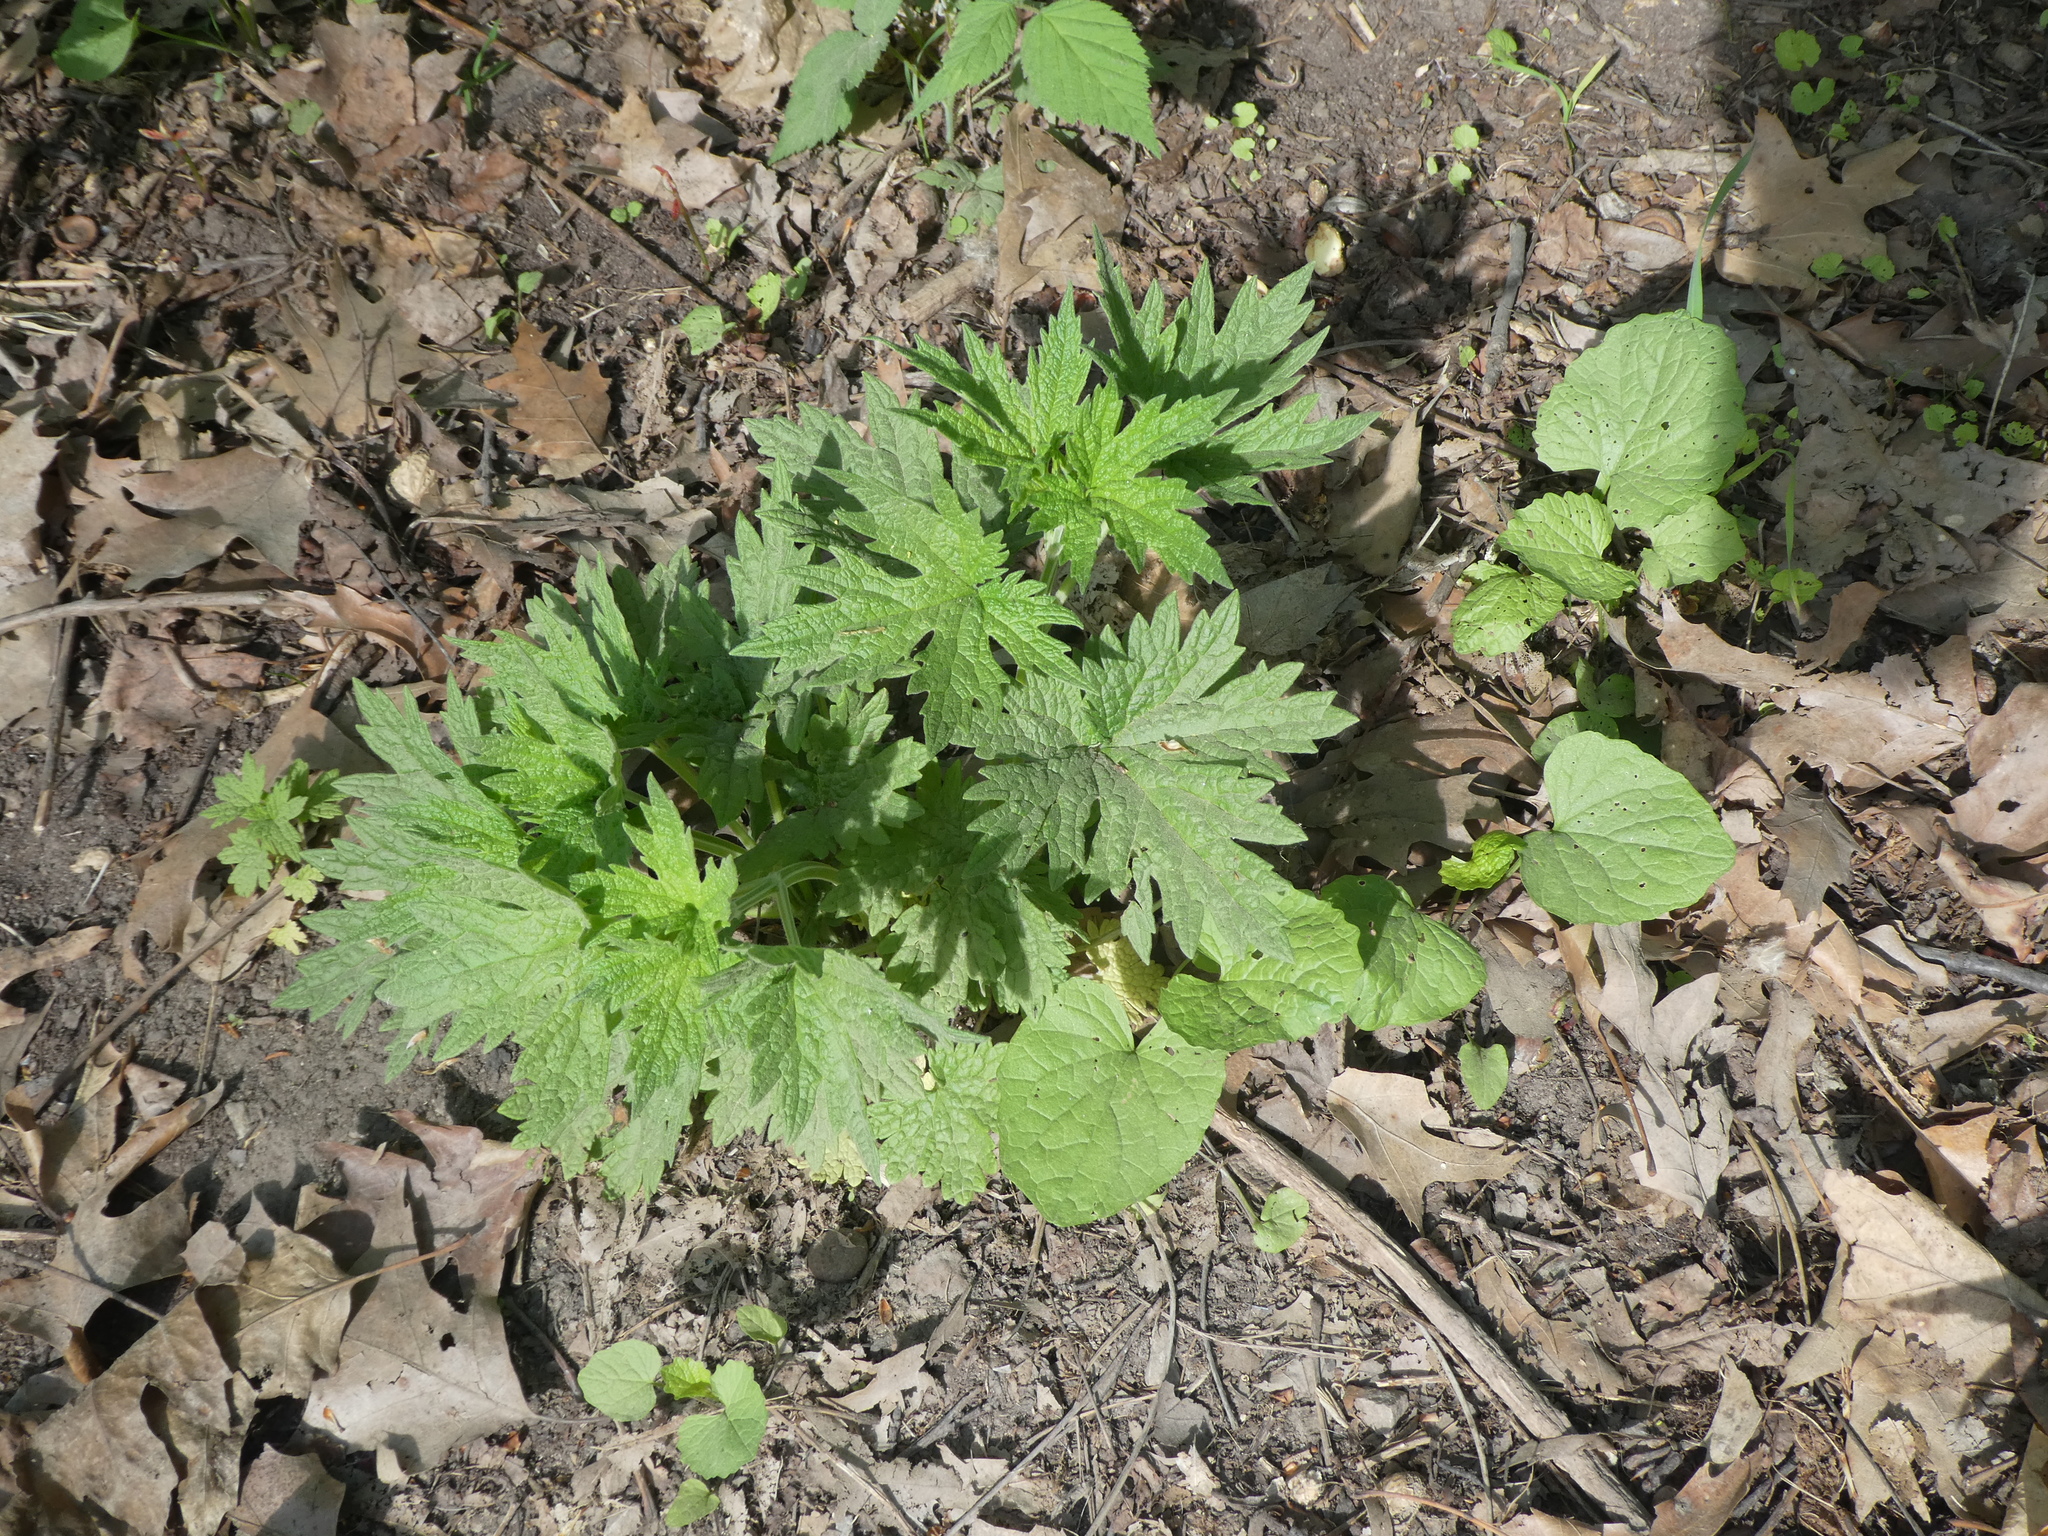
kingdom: Plantae
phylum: Tracheophyta
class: Magnoliopsida
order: Lamiales
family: Lamiaceae
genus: Leonurus
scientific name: Leonurus cardiaca
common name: Motherwort
